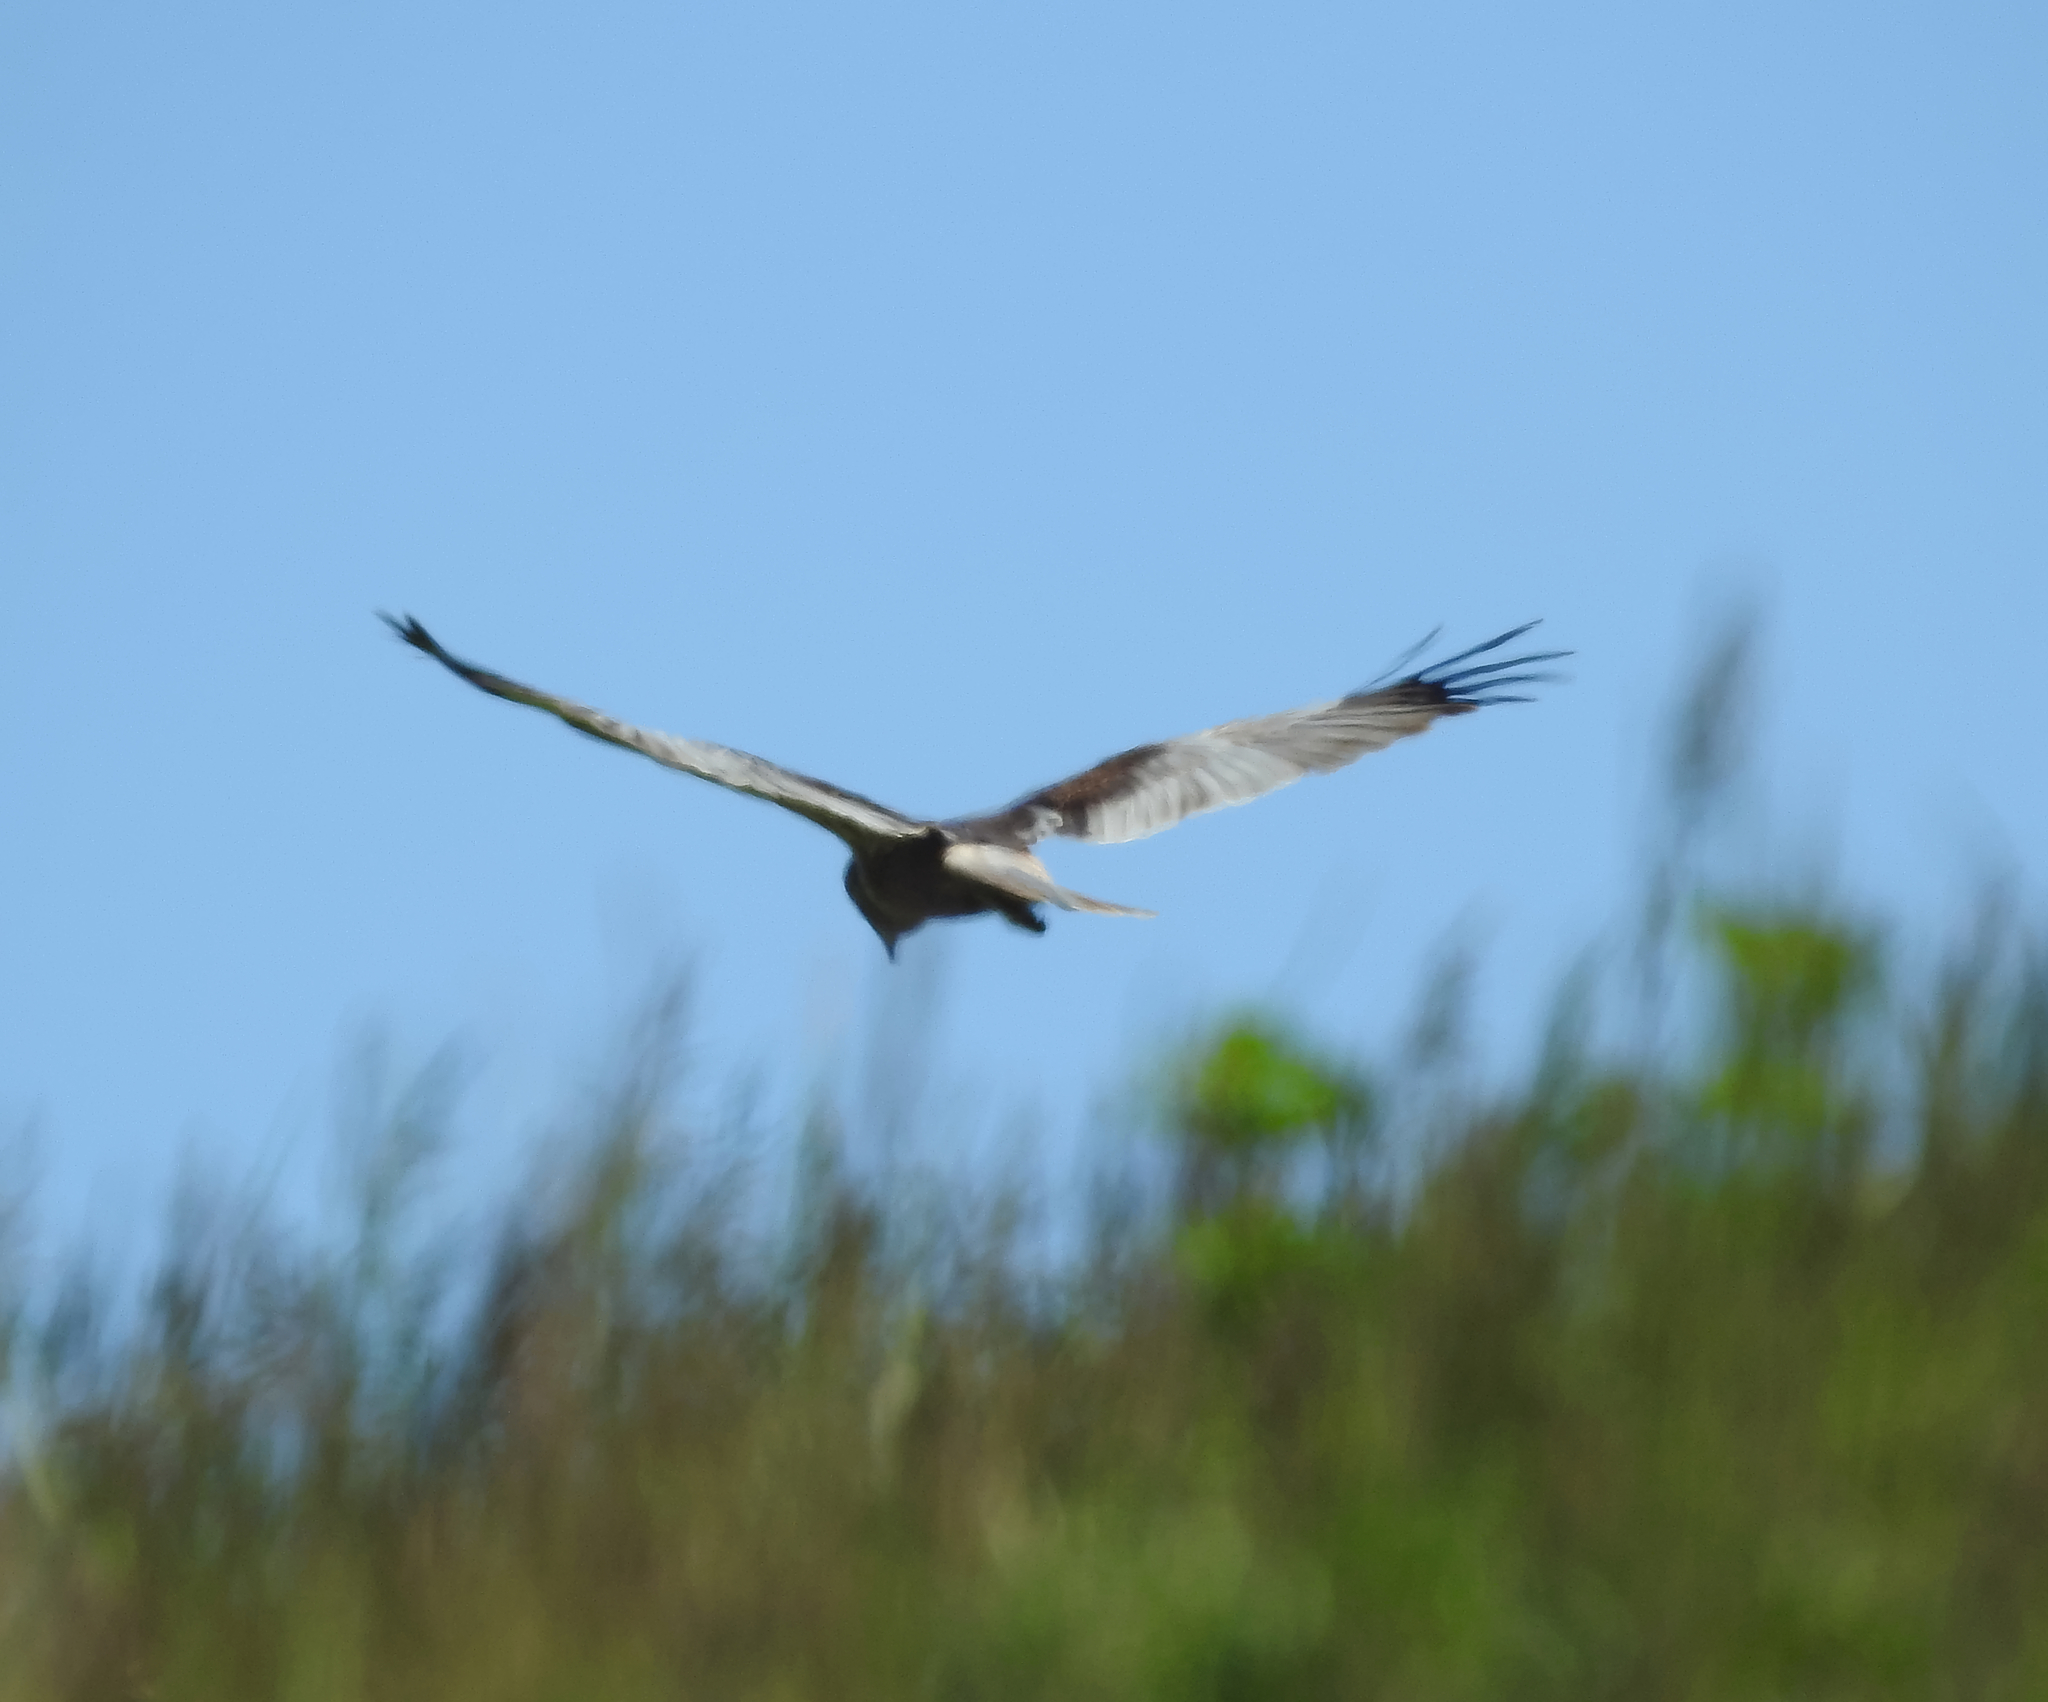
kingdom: Animalia
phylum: Chordata
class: Aves
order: Accipitriformes
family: Accipitridae
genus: Circus
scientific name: Circus aeruginosus
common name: Western marsh harrier
